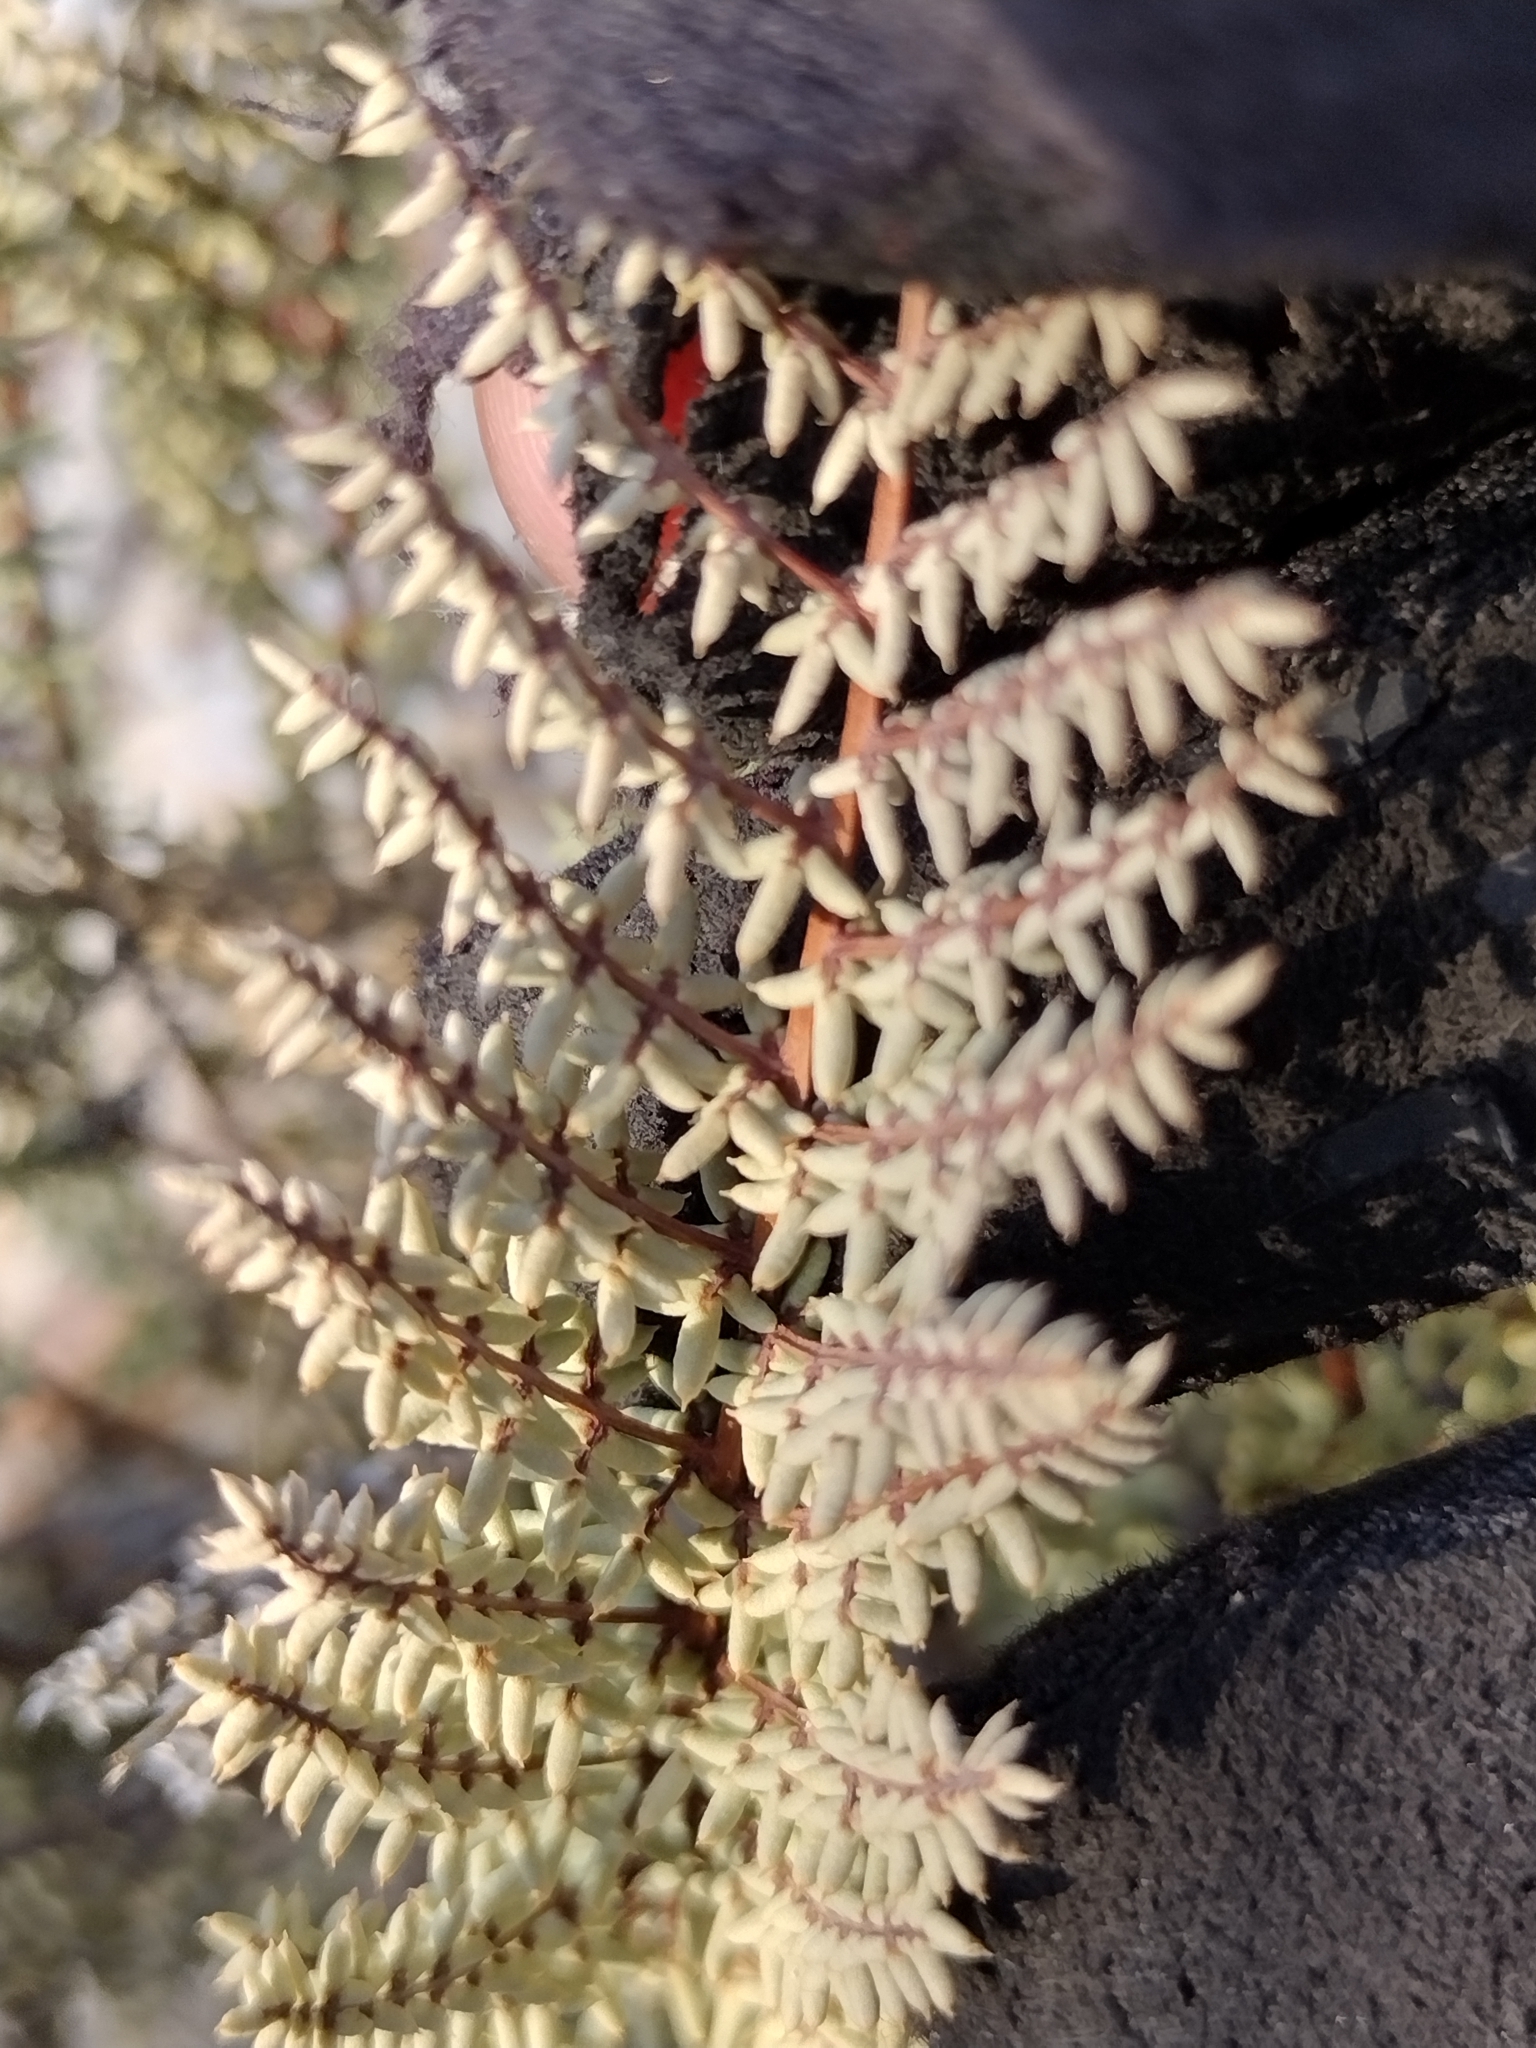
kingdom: Plantae
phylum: Tracheophyta
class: Polypodiopsida
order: Polypodiales
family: Pteridaceae
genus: Pellaea
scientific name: Pellaea mucronata
